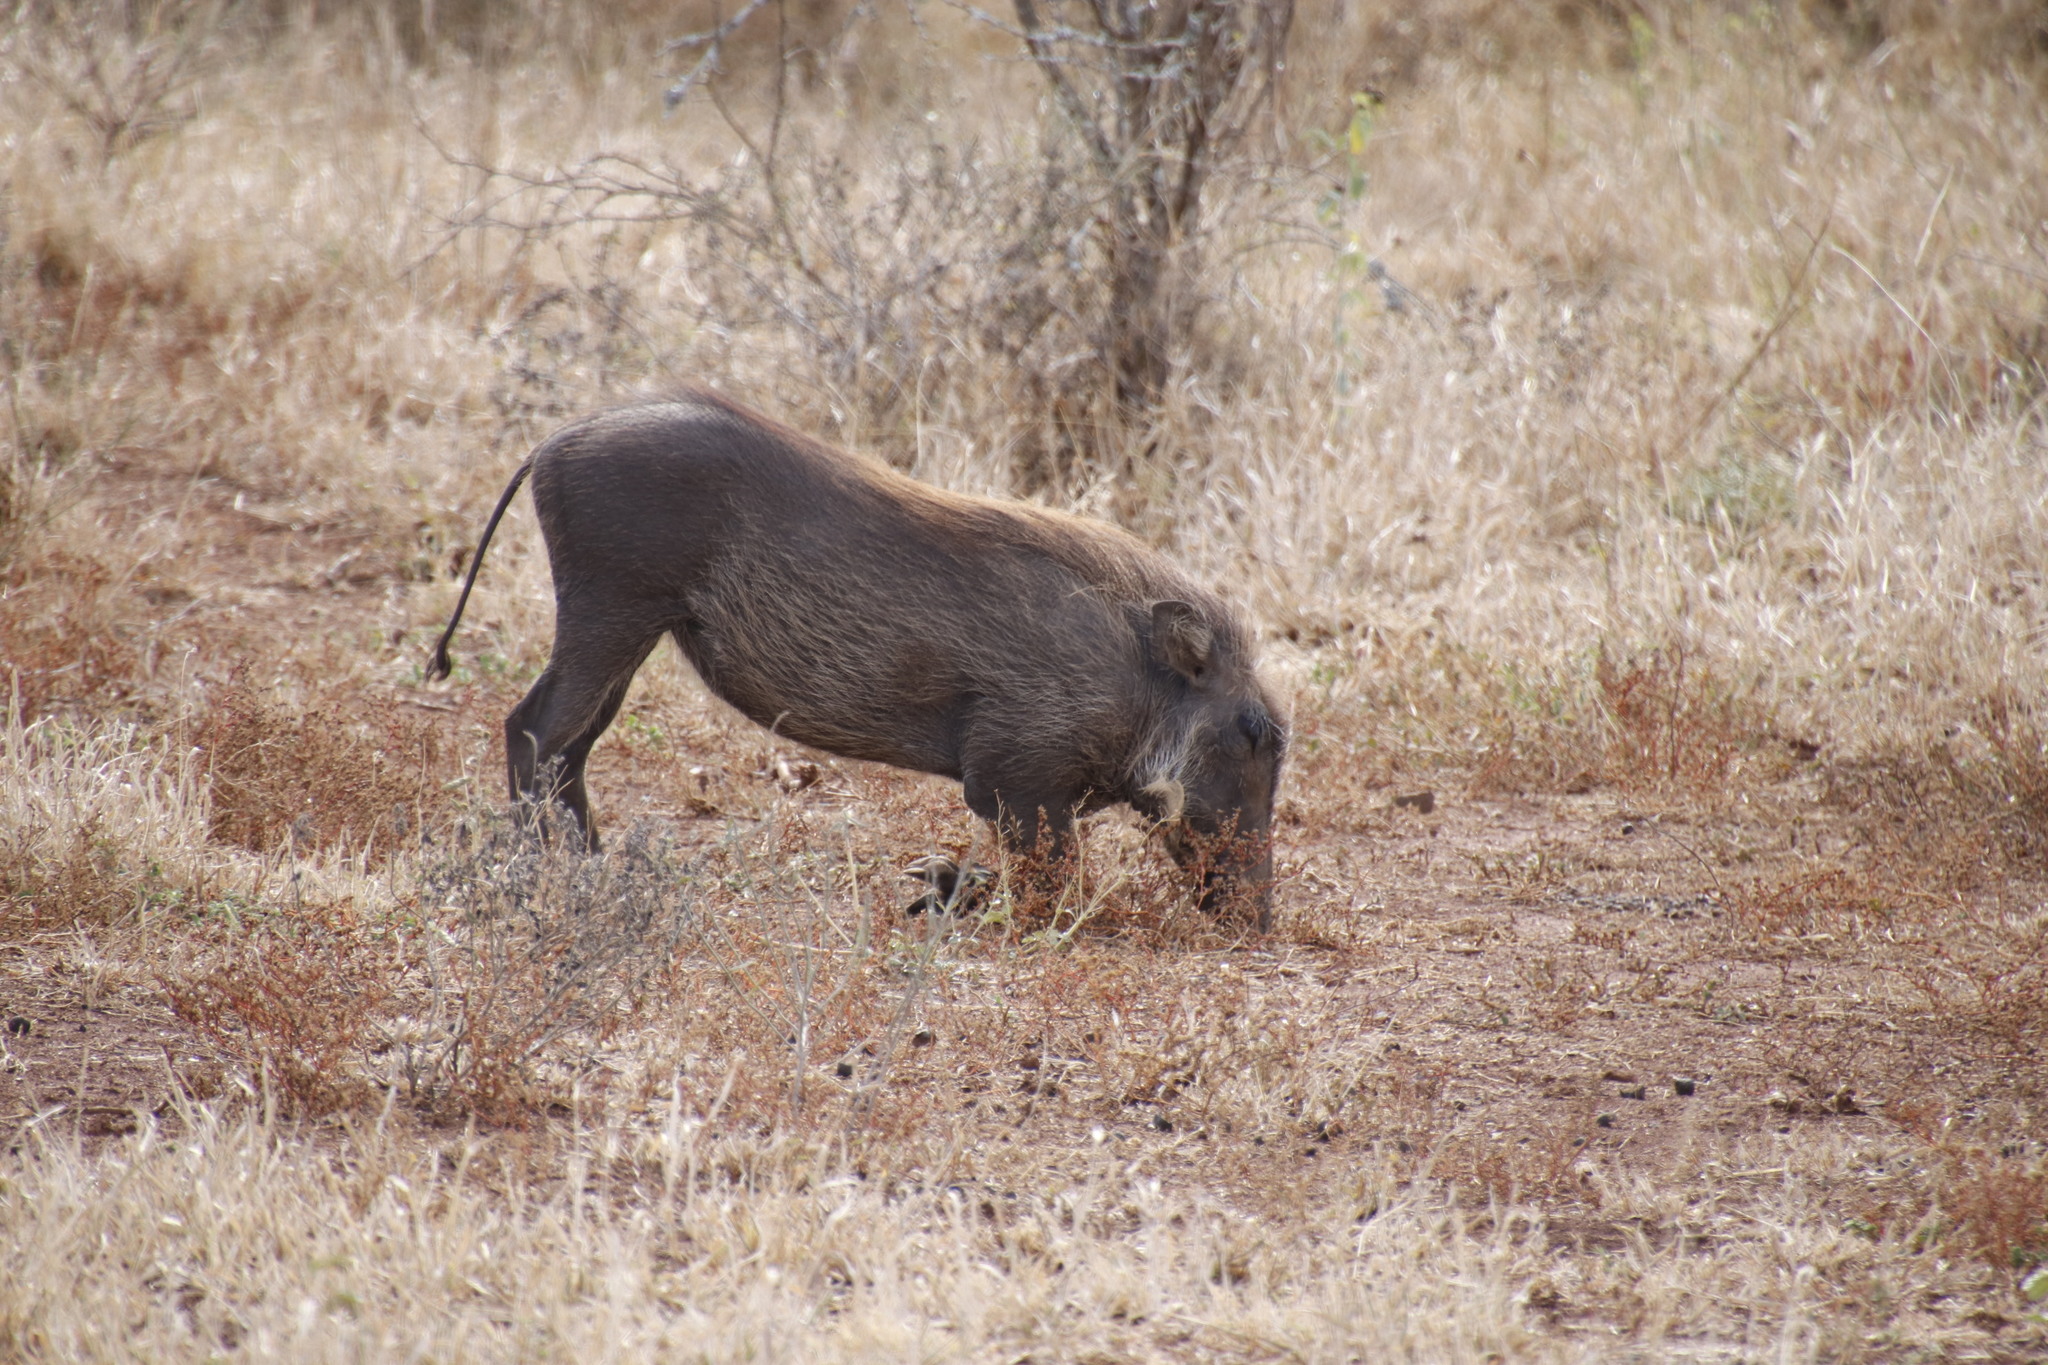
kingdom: Animalia
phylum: Chordata
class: Mammalia
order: Artiodactyla
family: Suidae
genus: Phacochoerus
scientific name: Phacochoerus africanus
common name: Common warthog
